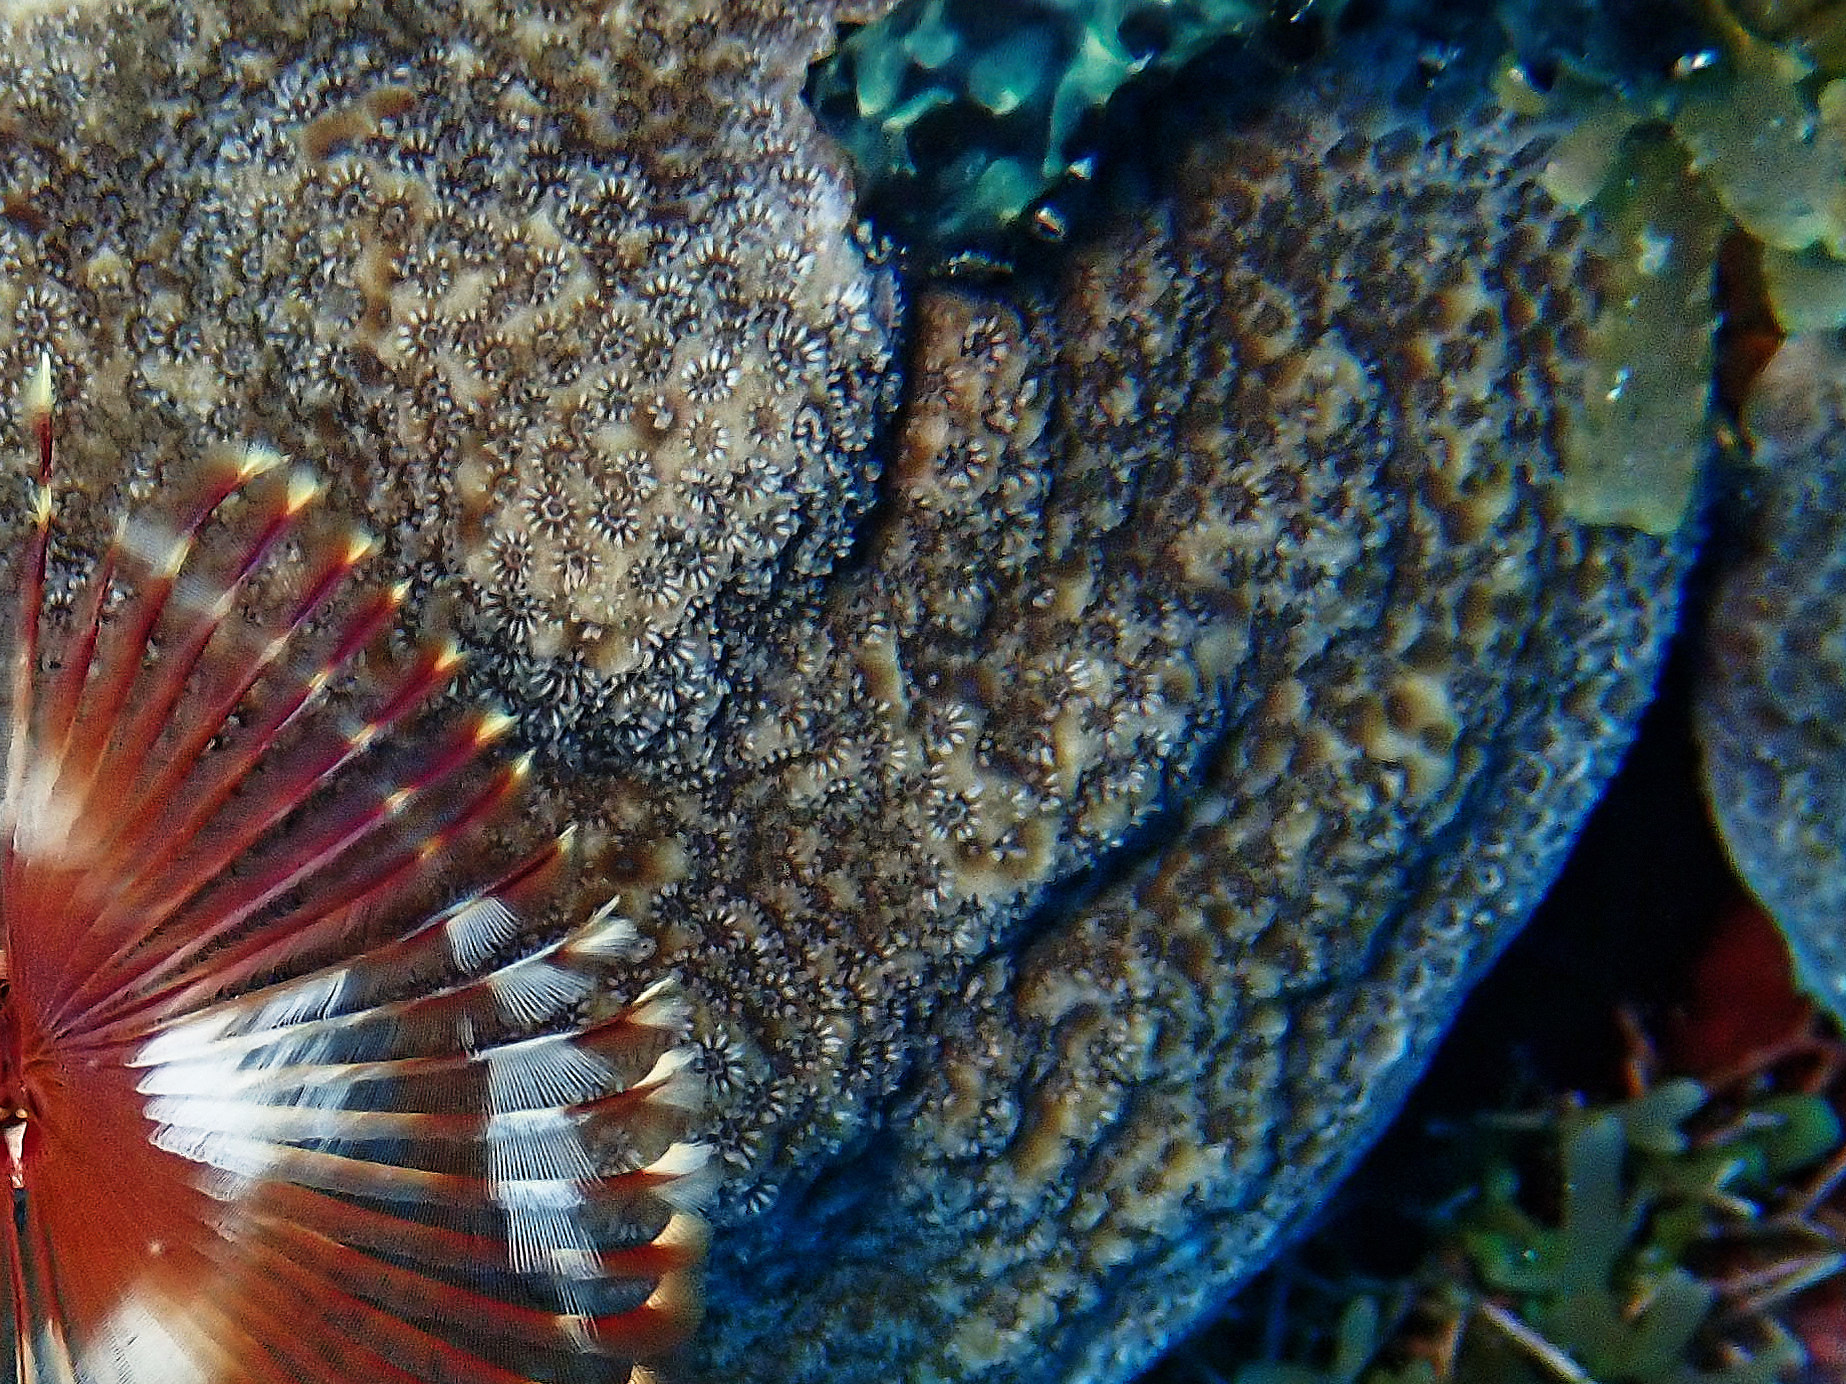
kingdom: Animalia
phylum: Cnidaria
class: Anthozoa
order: Scleractinia
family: Poritidae
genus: Porites
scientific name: Porites astreoides
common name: Mustard hill coral
